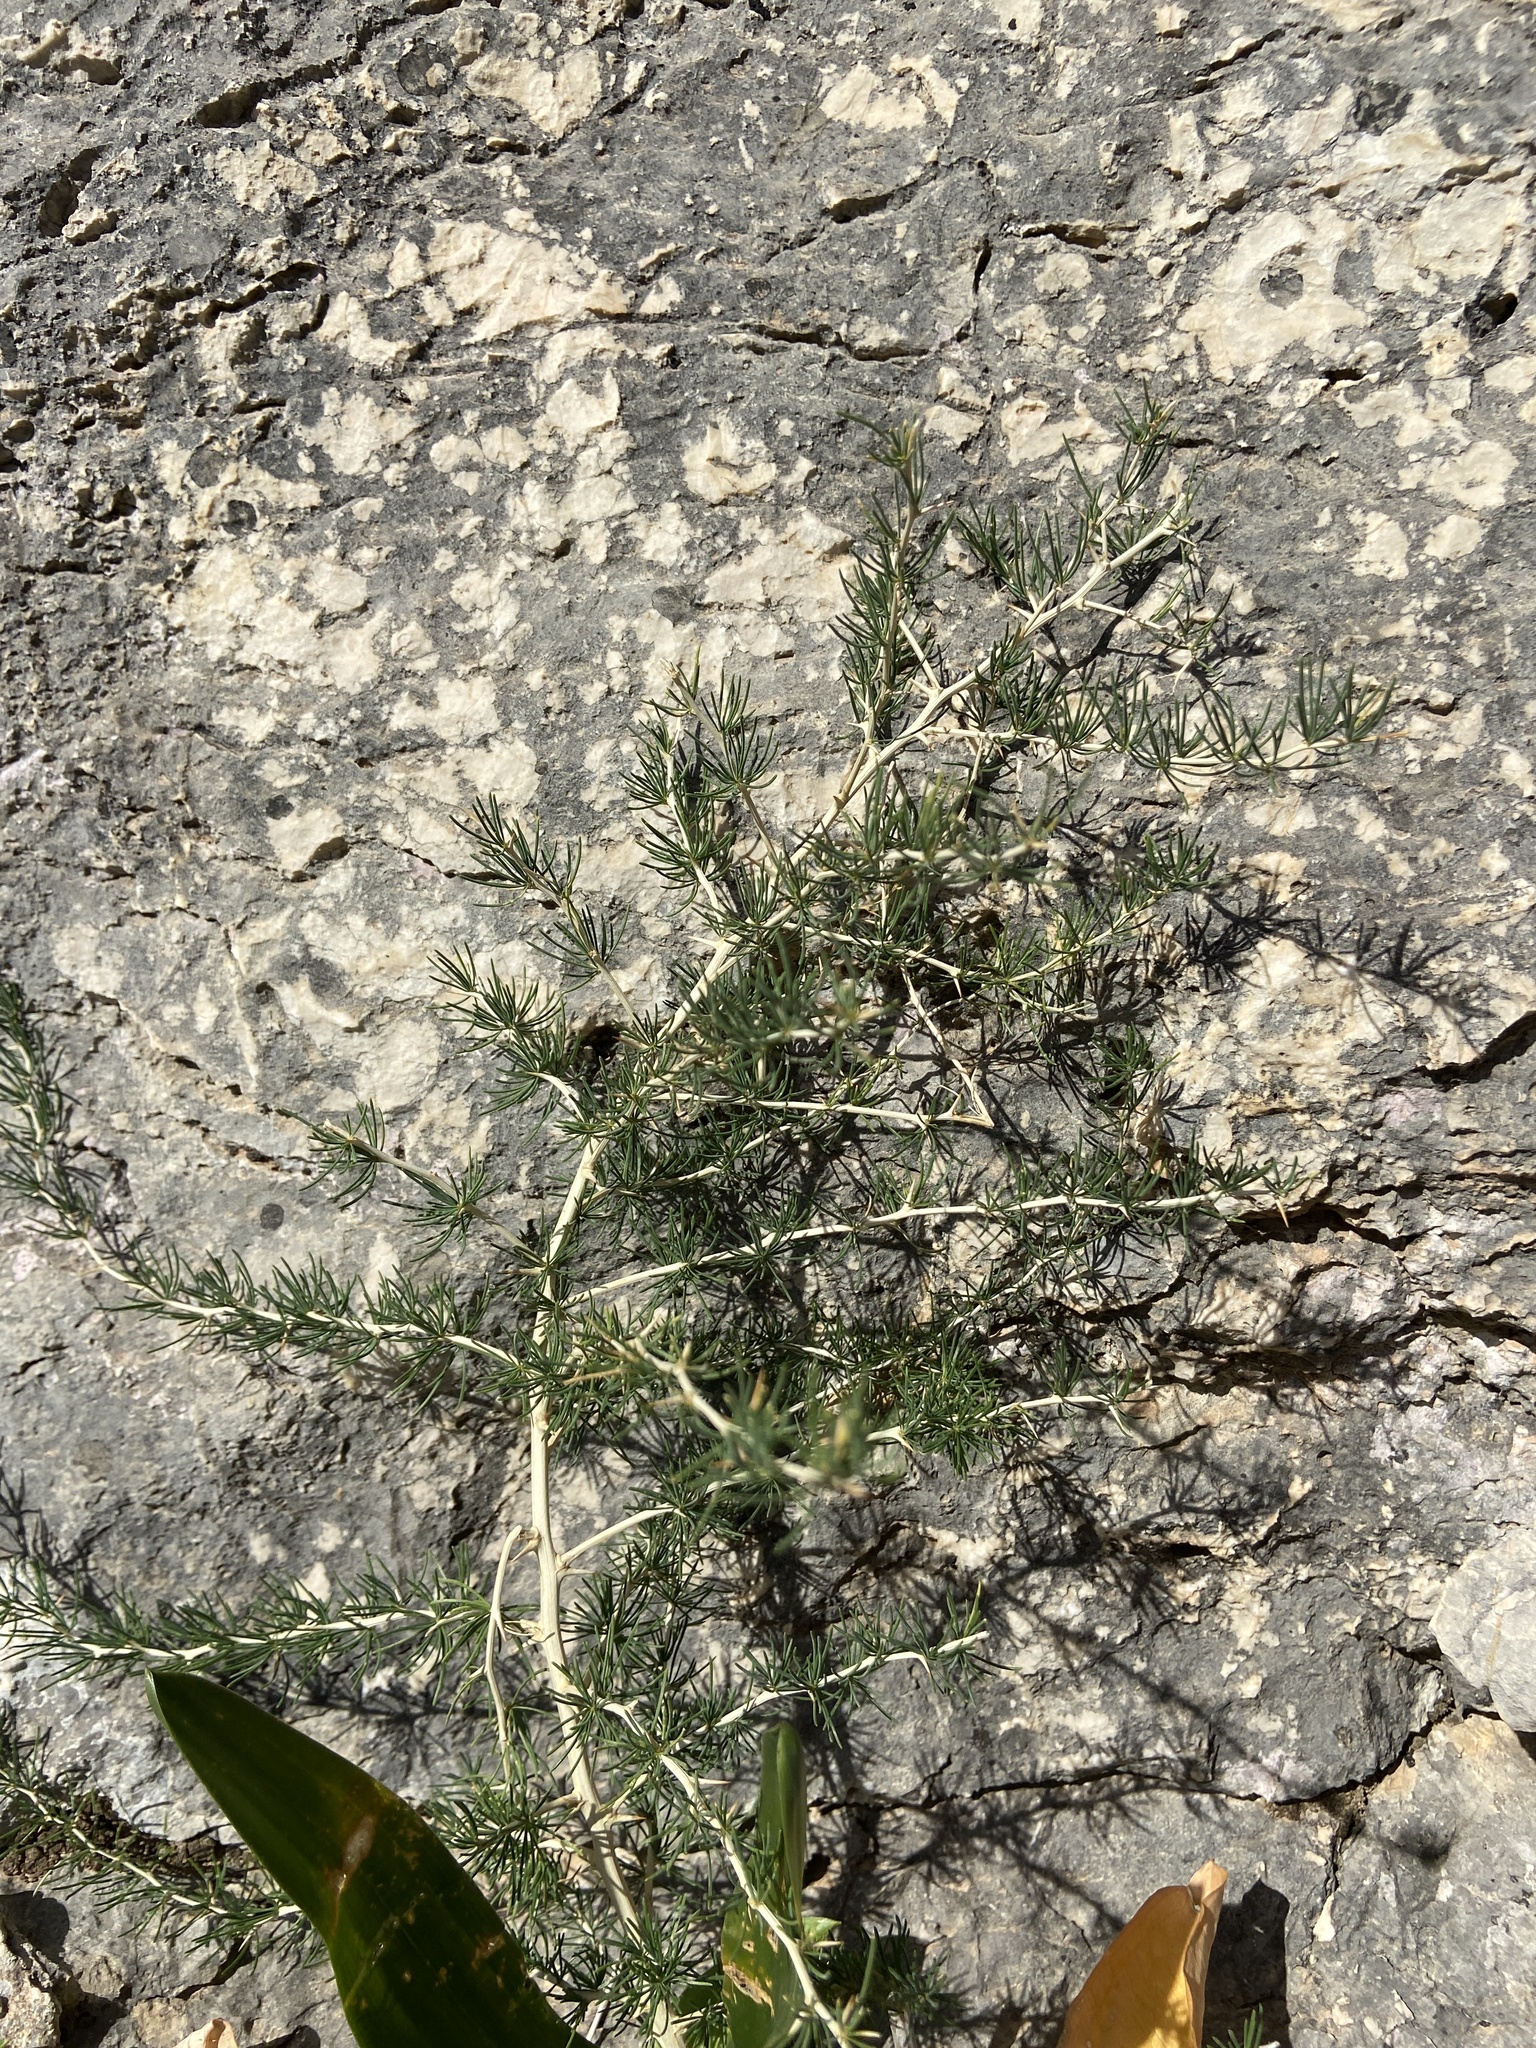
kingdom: Plantae
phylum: Tracheophyta
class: Liliopsida
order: Asparagales
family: Asparagaceae
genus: Asparagus
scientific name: Asparagus albus
